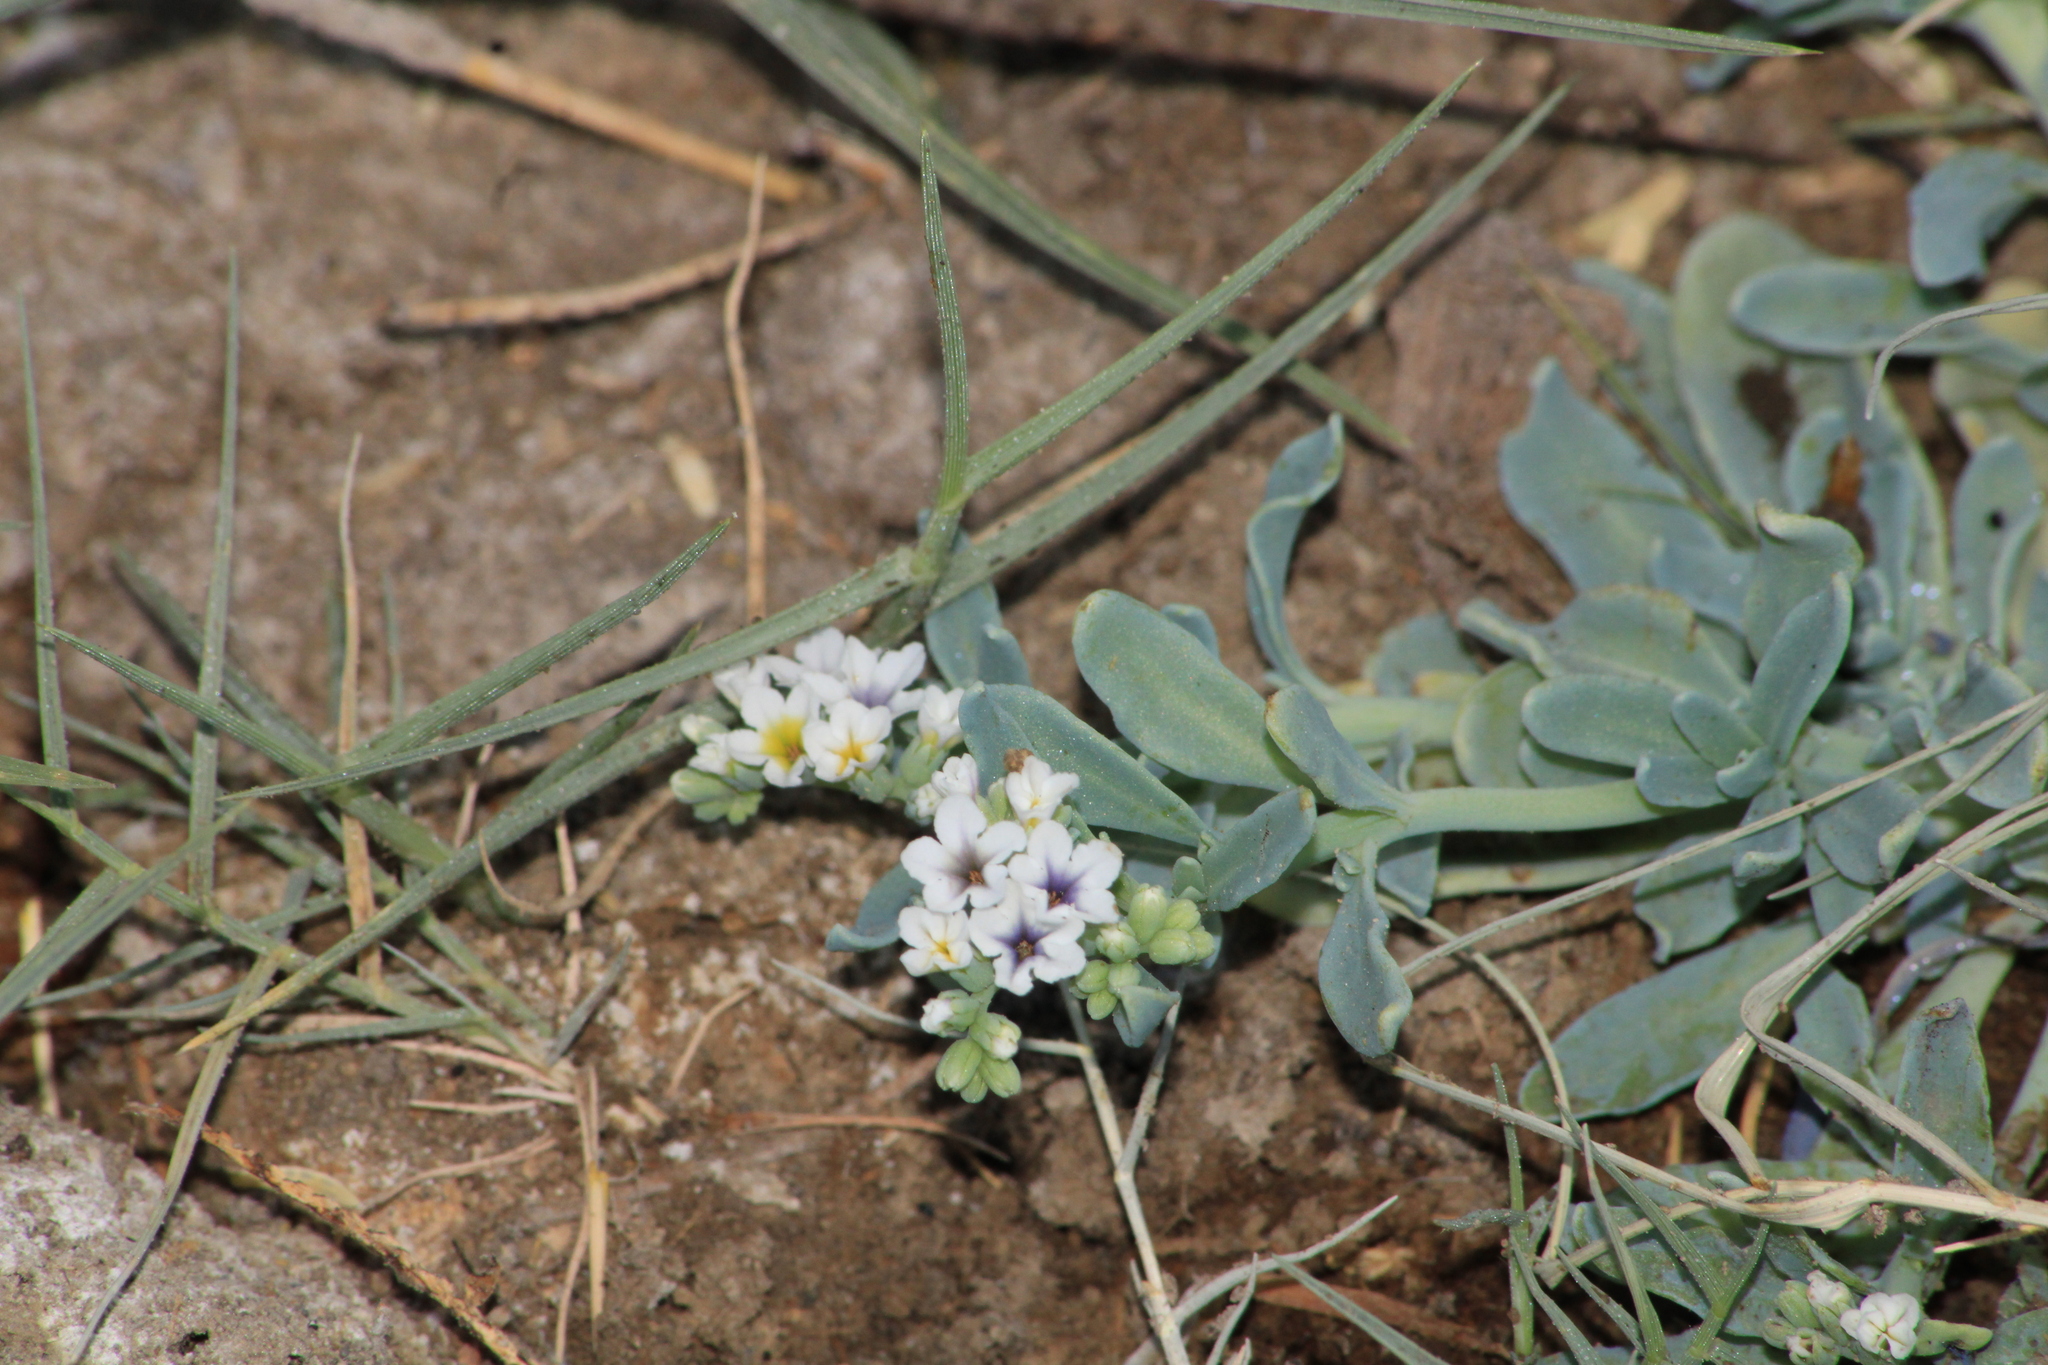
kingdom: Plantae
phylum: Tracheophyta
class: Magnoliopsida
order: Boraginales
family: Heliotropiaceae
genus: Heliotropium
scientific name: Heliotropium curassavicum
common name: Seaside heliotrope
